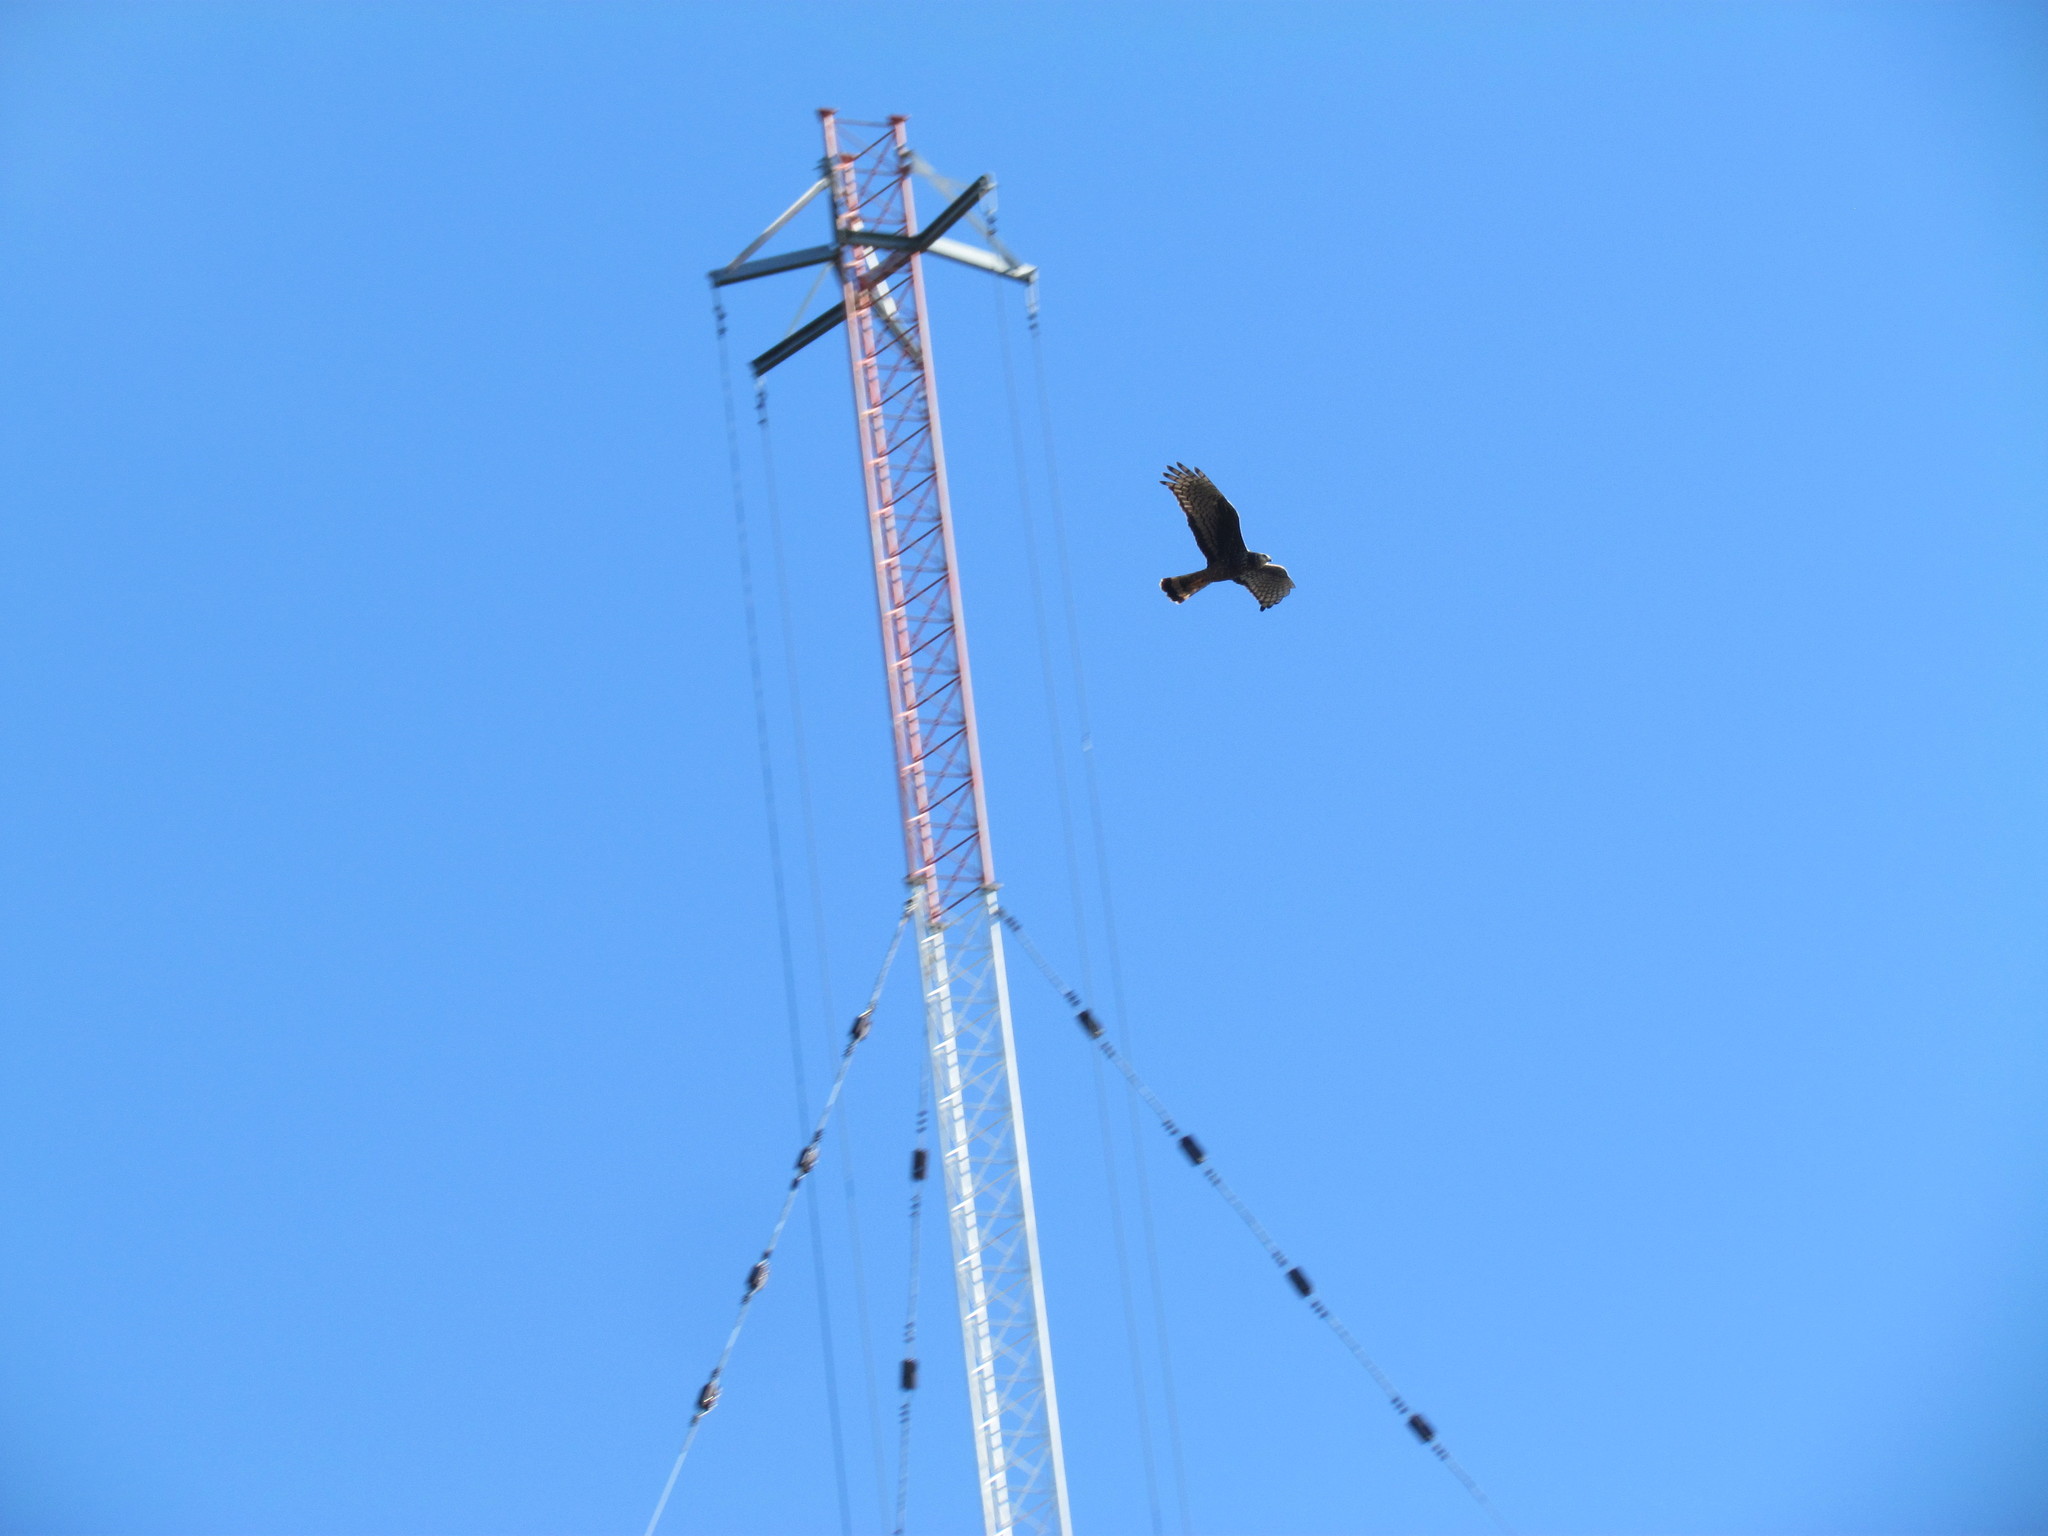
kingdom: Animalia
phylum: Chordata
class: Aves
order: Accipitriformes
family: Accipitridae
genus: Circus
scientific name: Circus buffoni
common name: Long-winged harrier
